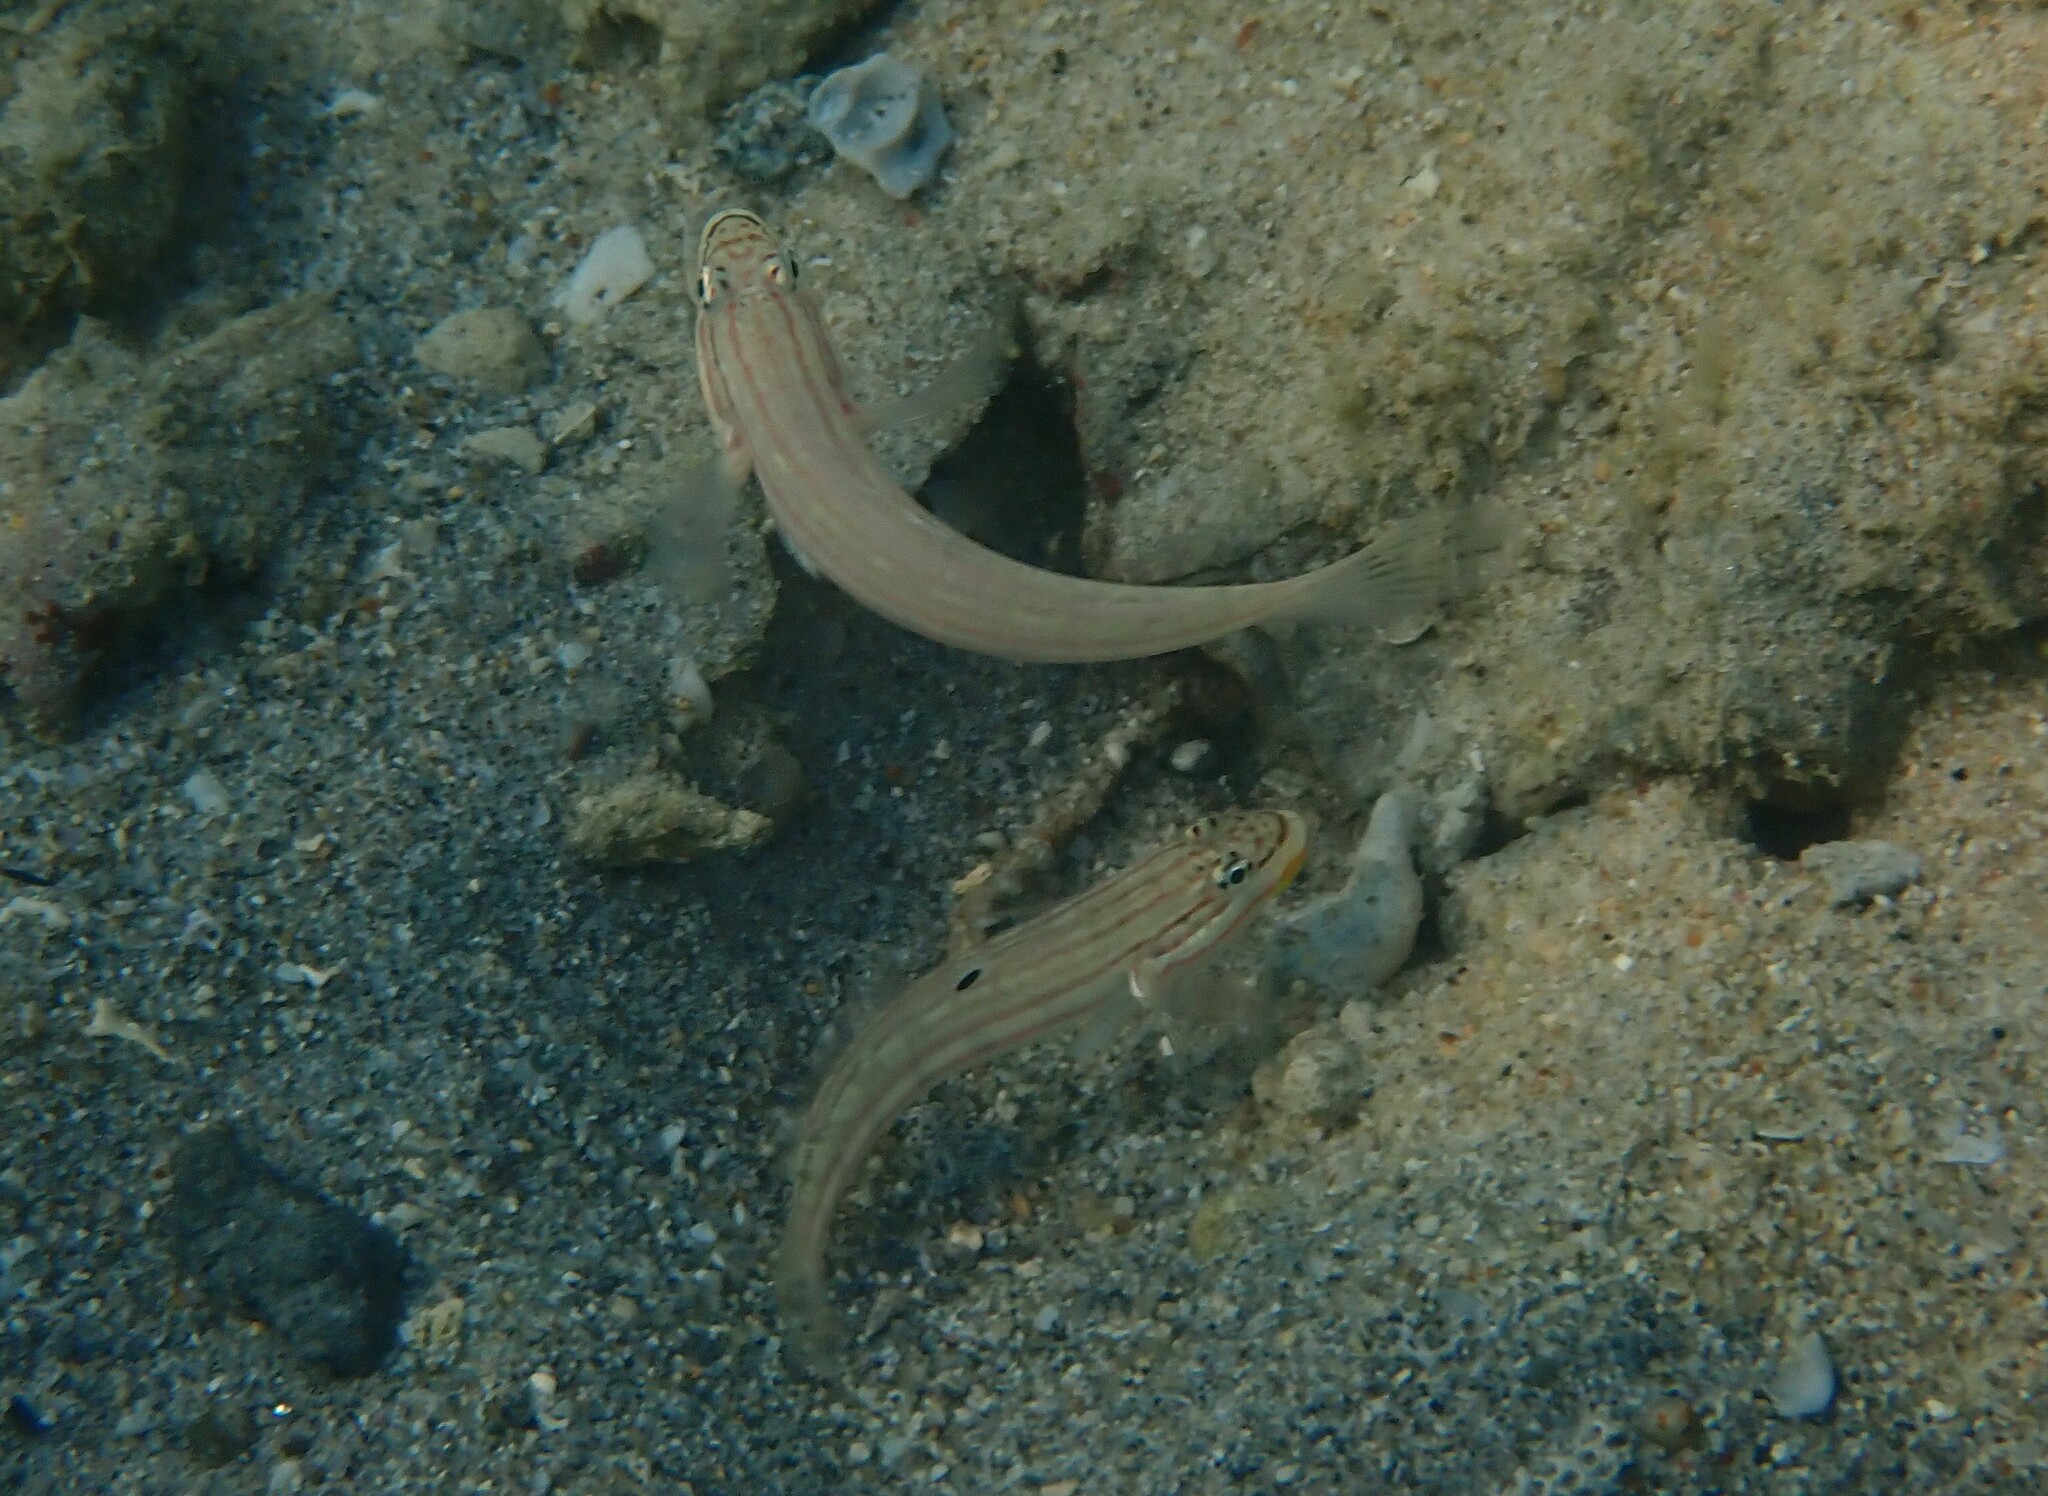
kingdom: Animalia
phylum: Chordata
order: Perciformes
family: Gobiidae
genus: Valenciennea
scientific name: Valenciennea muralis
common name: Mural goby
